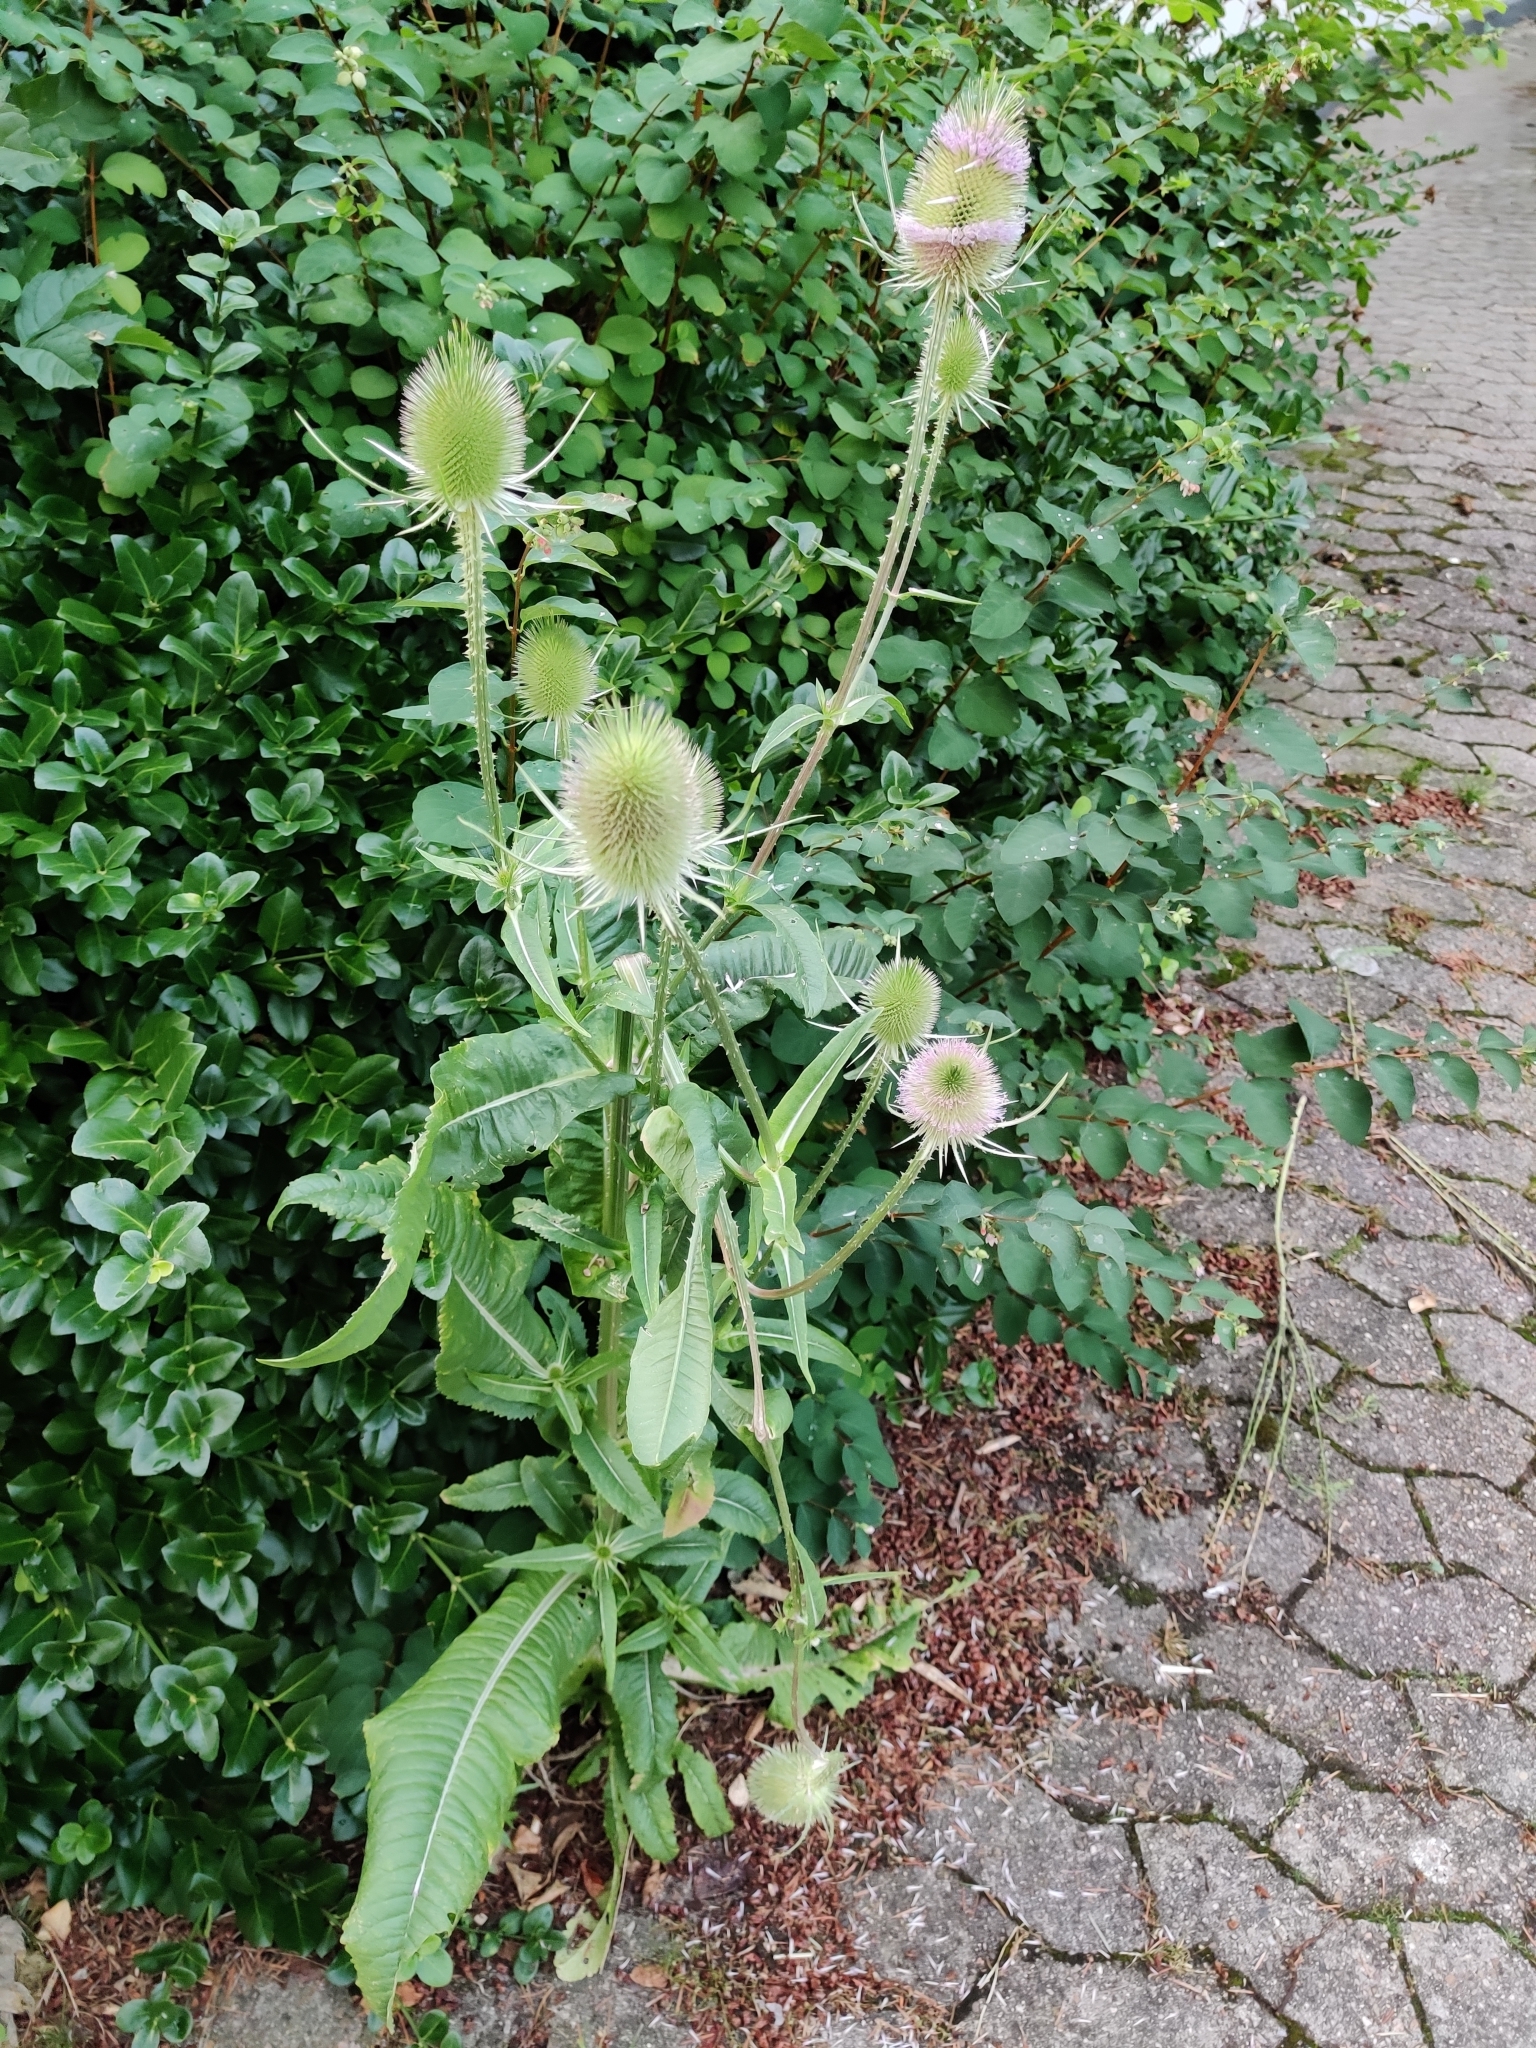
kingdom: Plantae
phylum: Tracheophyta
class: Magnoliopsida
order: Dipsacales
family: Caprifoliaceae
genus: Dipsacus
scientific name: Dipsacus fullonum
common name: Teasel
